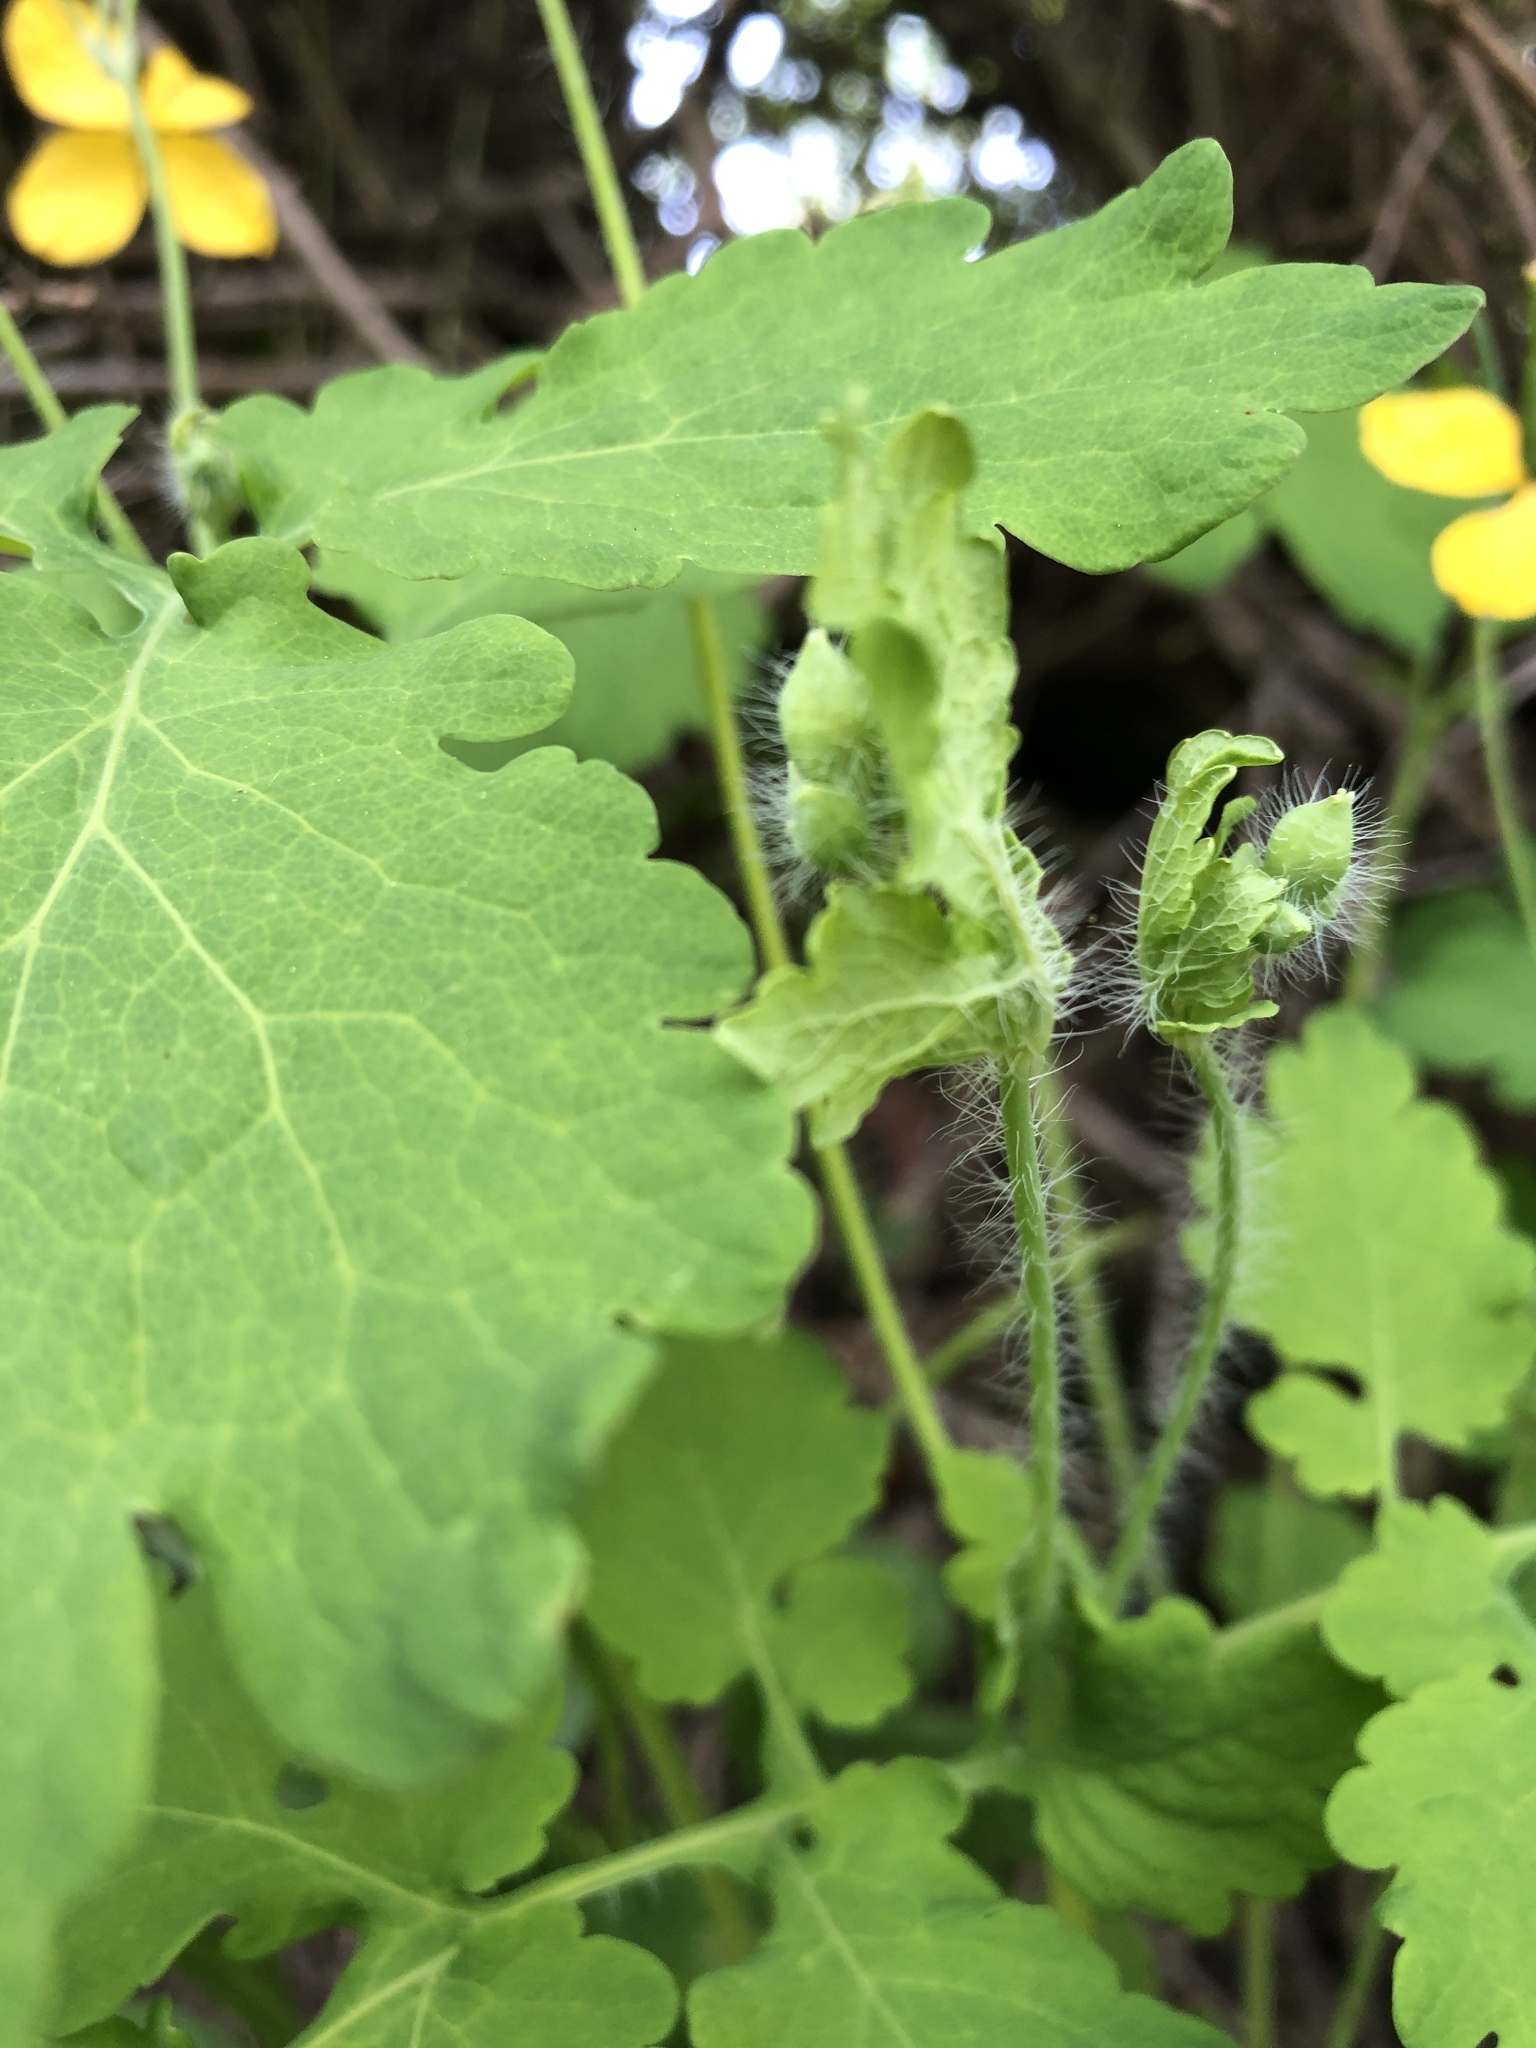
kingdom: Plantae
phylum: Tracheophyta
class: Magnoliopsida
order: Ranunculales
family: Papaveraceae
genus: Chelidonium
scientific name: Chelidonium majus
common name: Greater celandine
